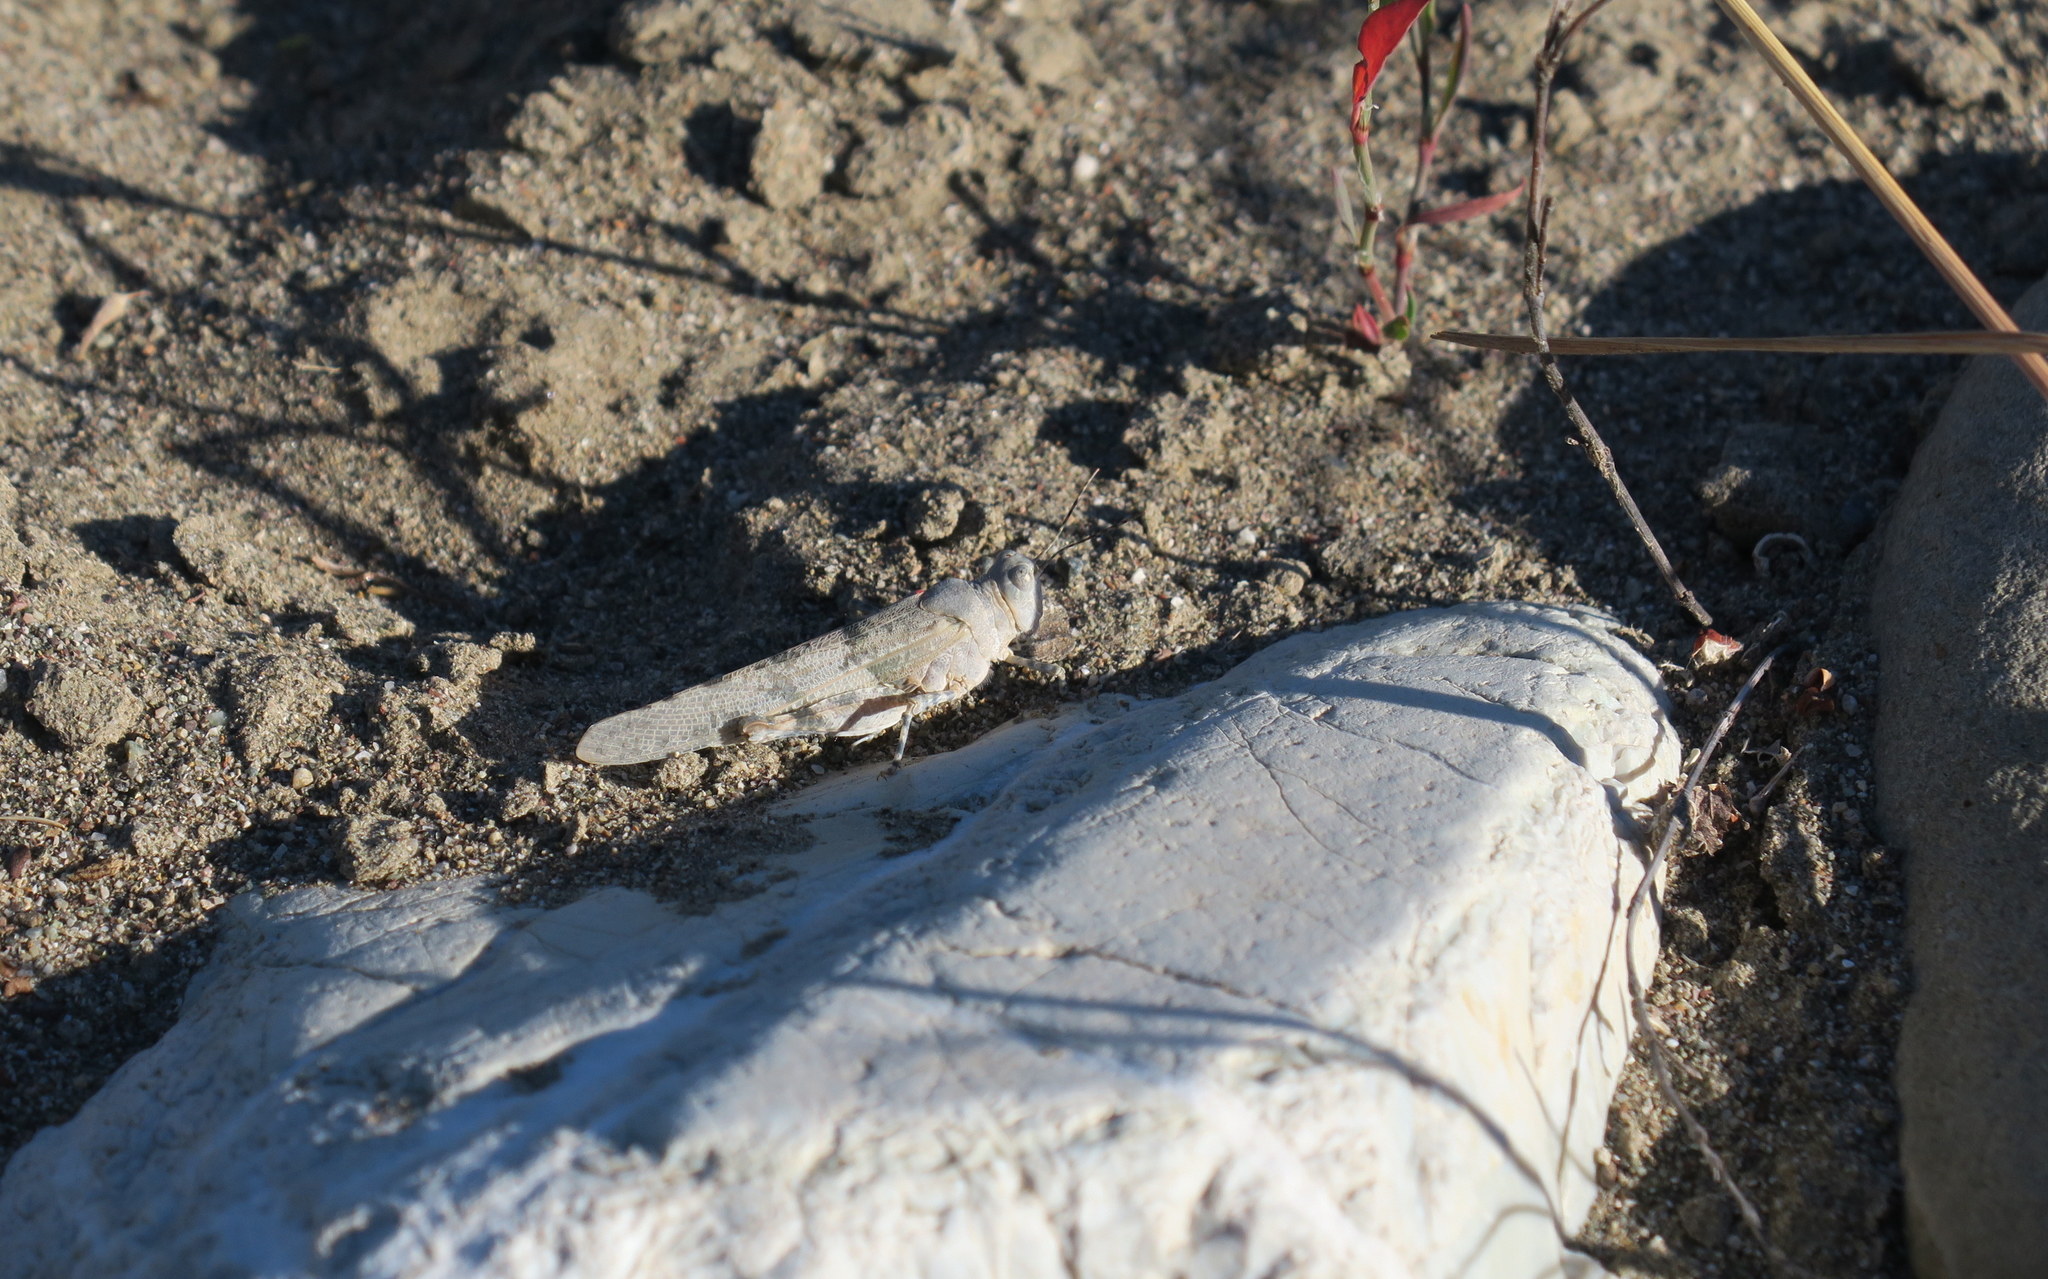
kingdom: Animalia
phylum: Arthropoda
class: Insecta
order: Orthoptera
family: Acrididae
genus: Sphingonotus
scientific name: Sphingonotus caerulans
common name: Blue-winged locust
